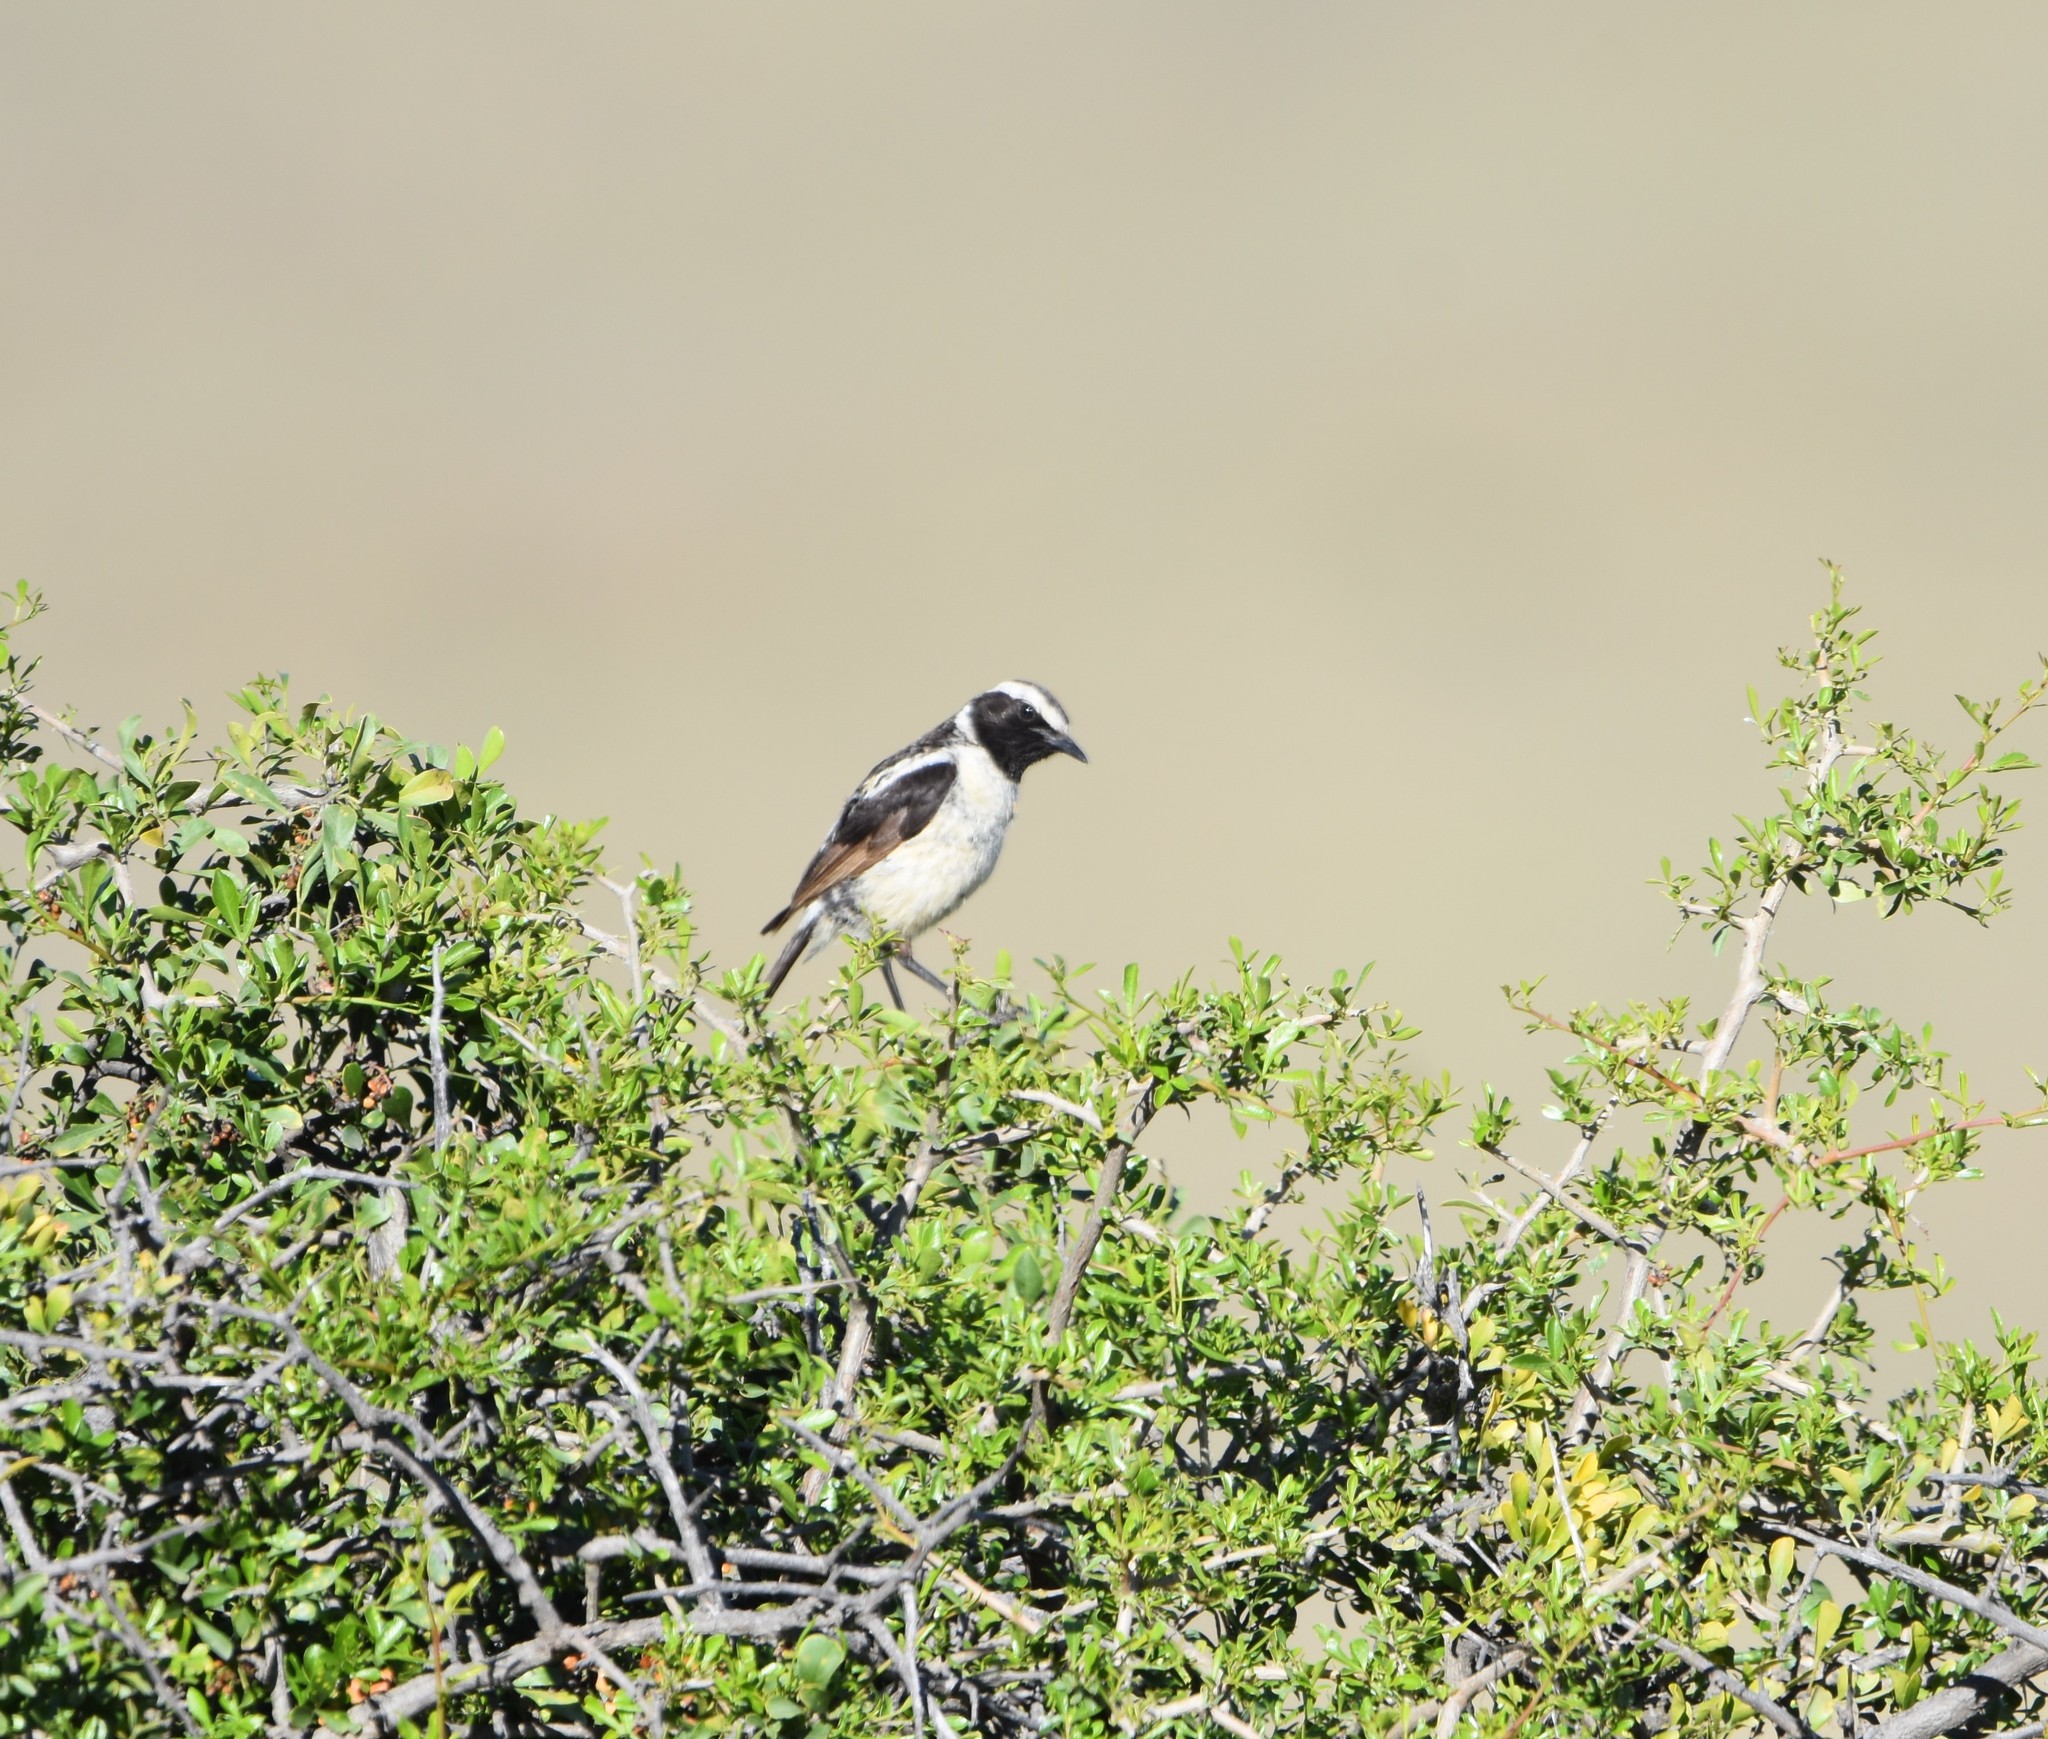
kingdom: Animalia
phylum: Chordata
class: Aves
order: Passeriformes
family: Muscicapidae
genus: Campicoloides
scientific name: Campicoloides bifasciatus
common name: Buff-streaked chat
